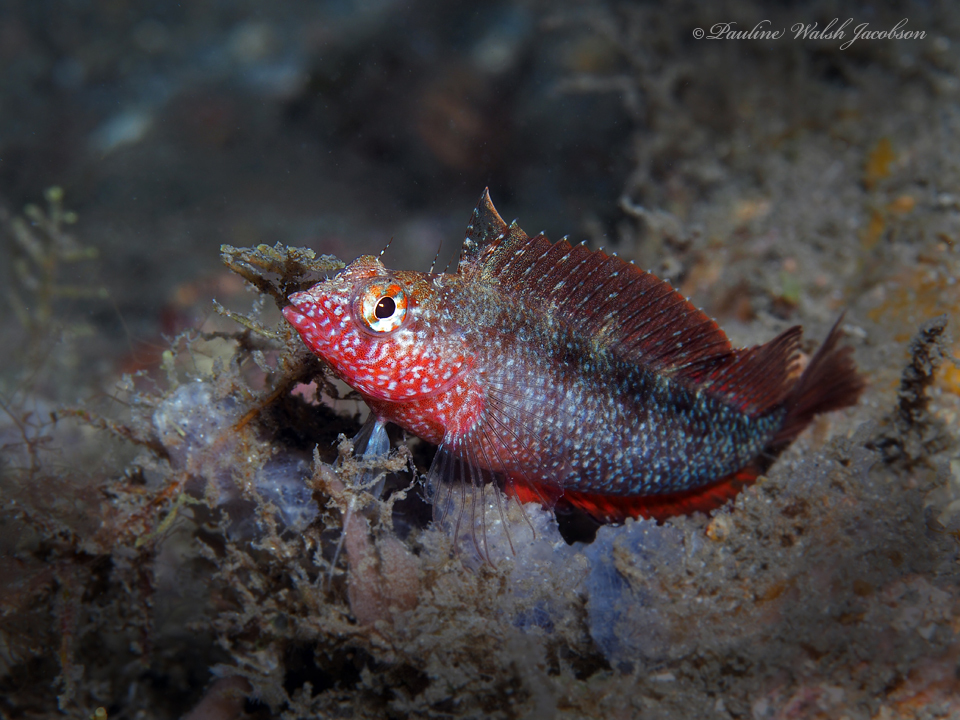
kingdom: Animalia
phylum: Chordata
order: Perciformes
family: Labrisomidae
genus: Malacoctenus
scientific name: Malacoctenus macropus
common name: Rosy blenny
